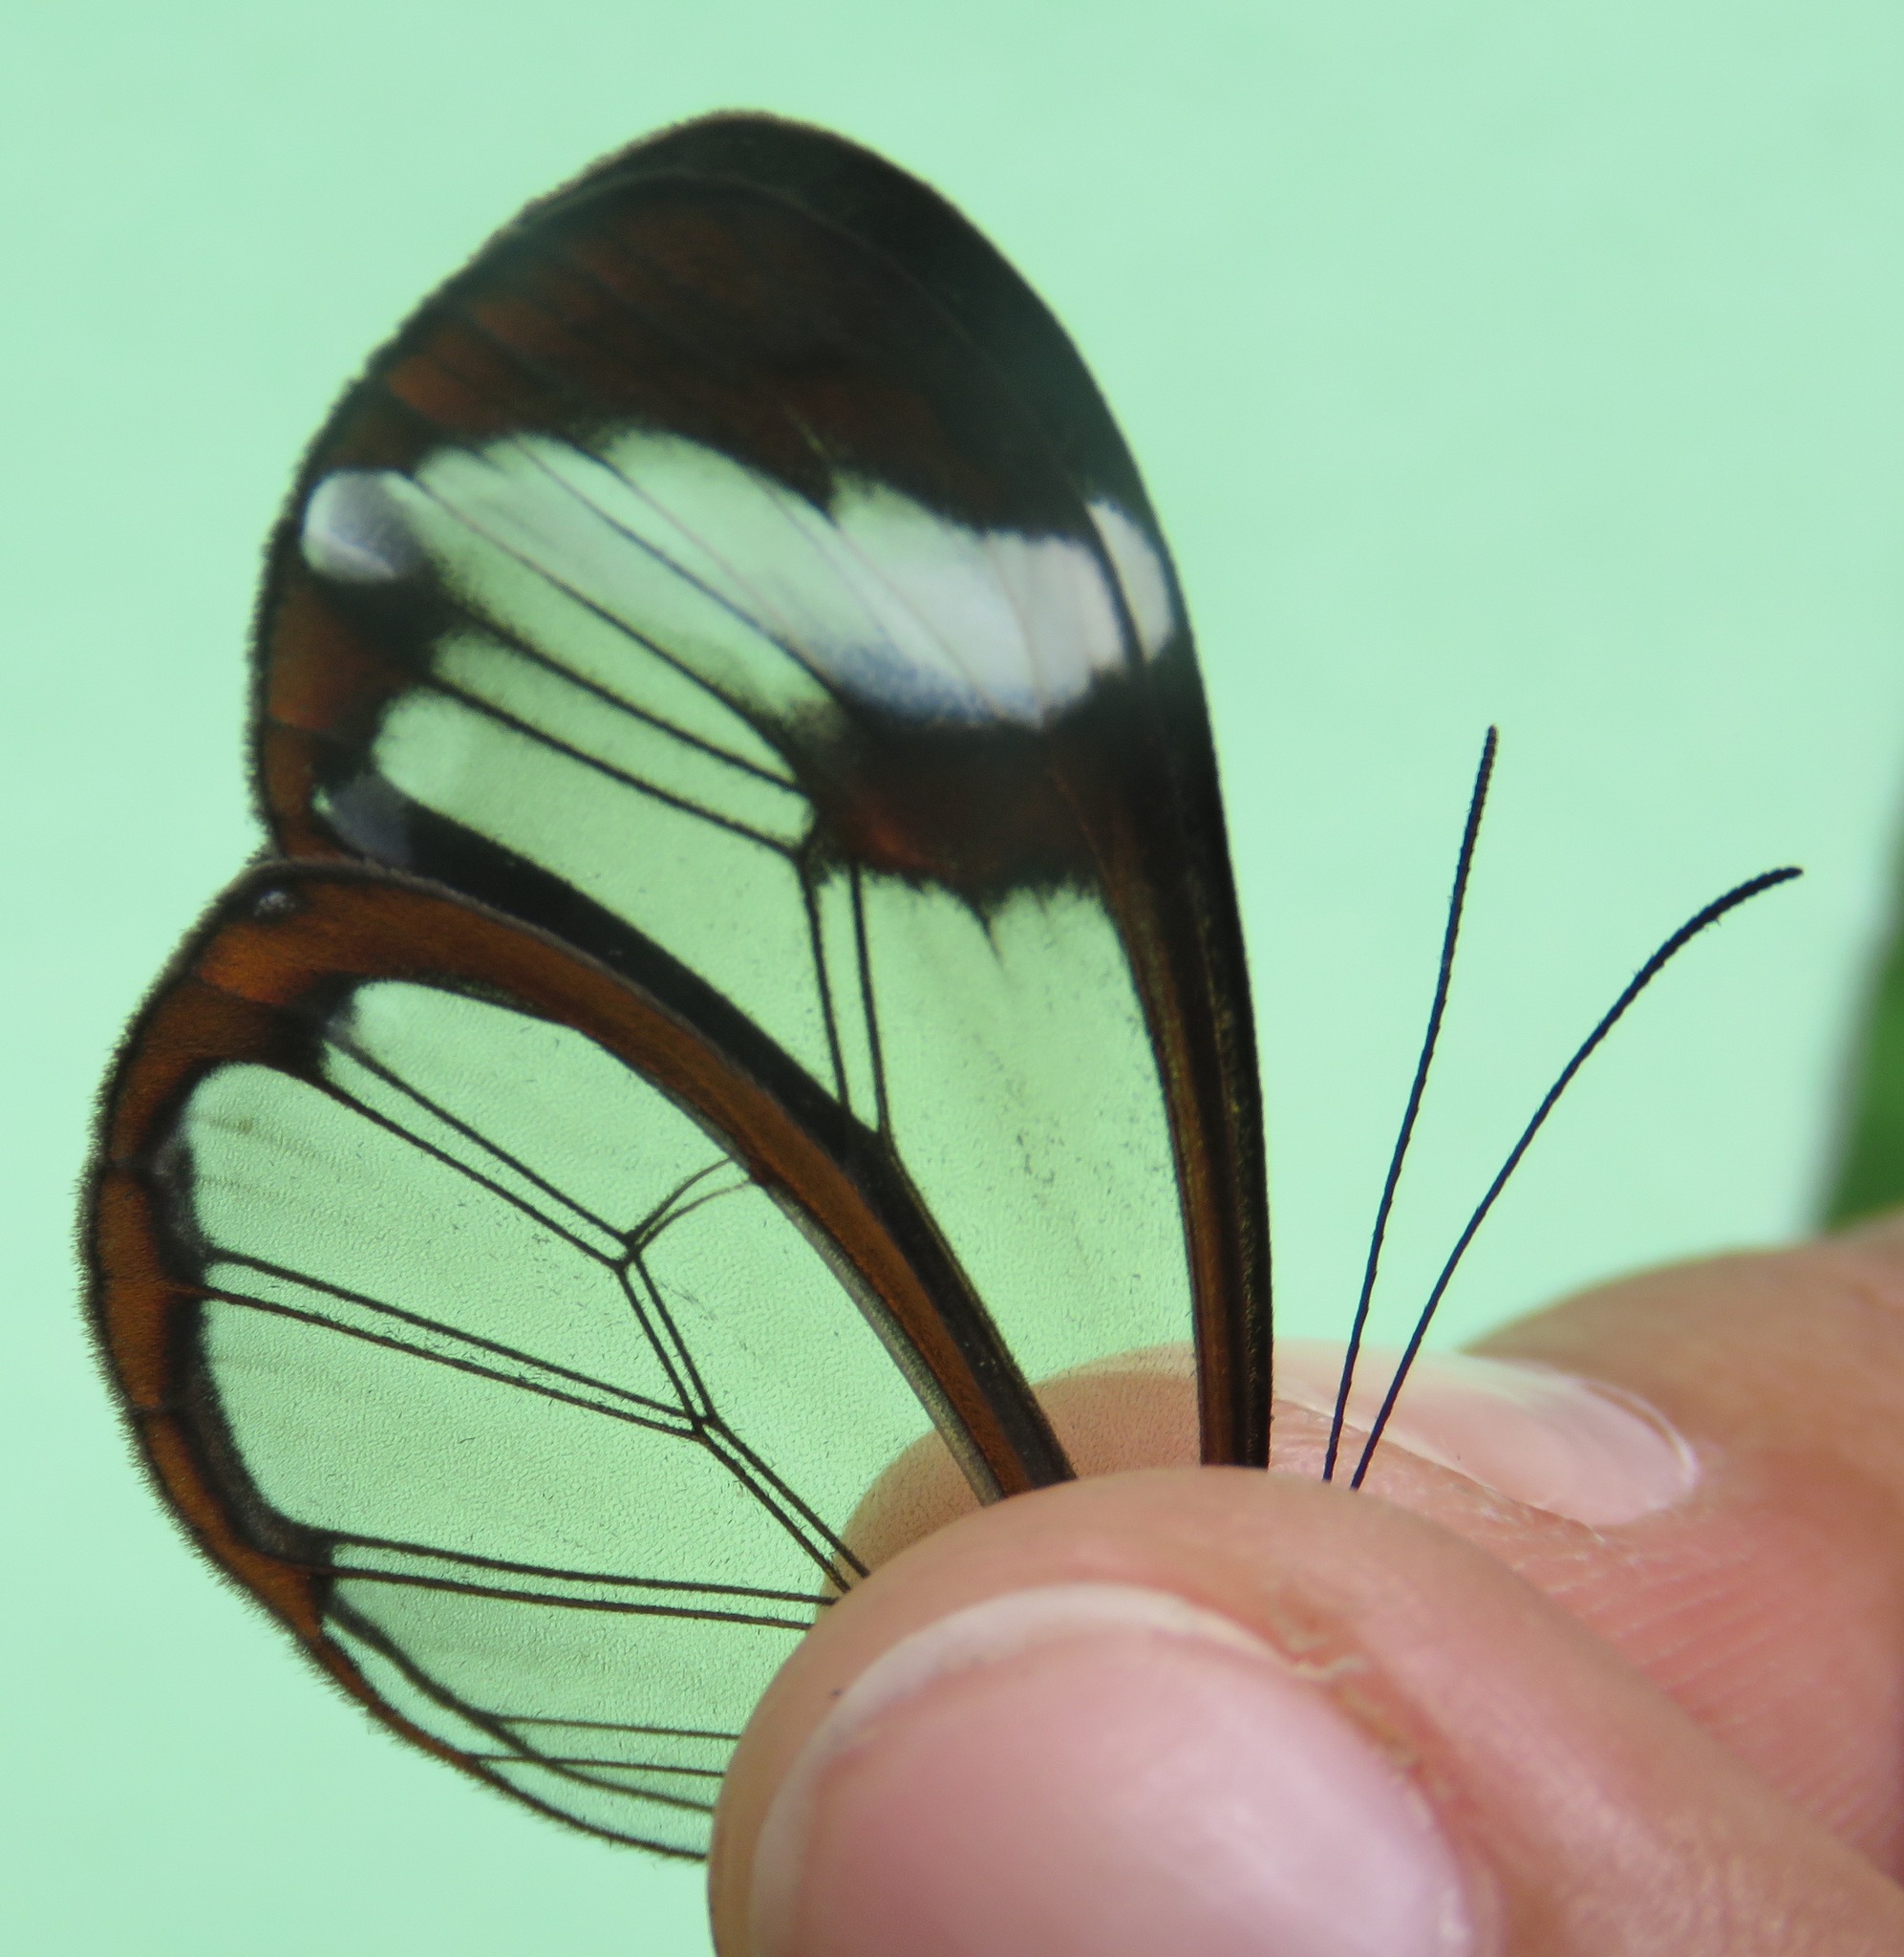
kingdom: Animalia
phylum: Arthropoda
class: Insecta
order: Lepidoptera
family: Nymphalidae
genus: Greta
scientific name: Greta morgane
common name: Thick-tipped greta
